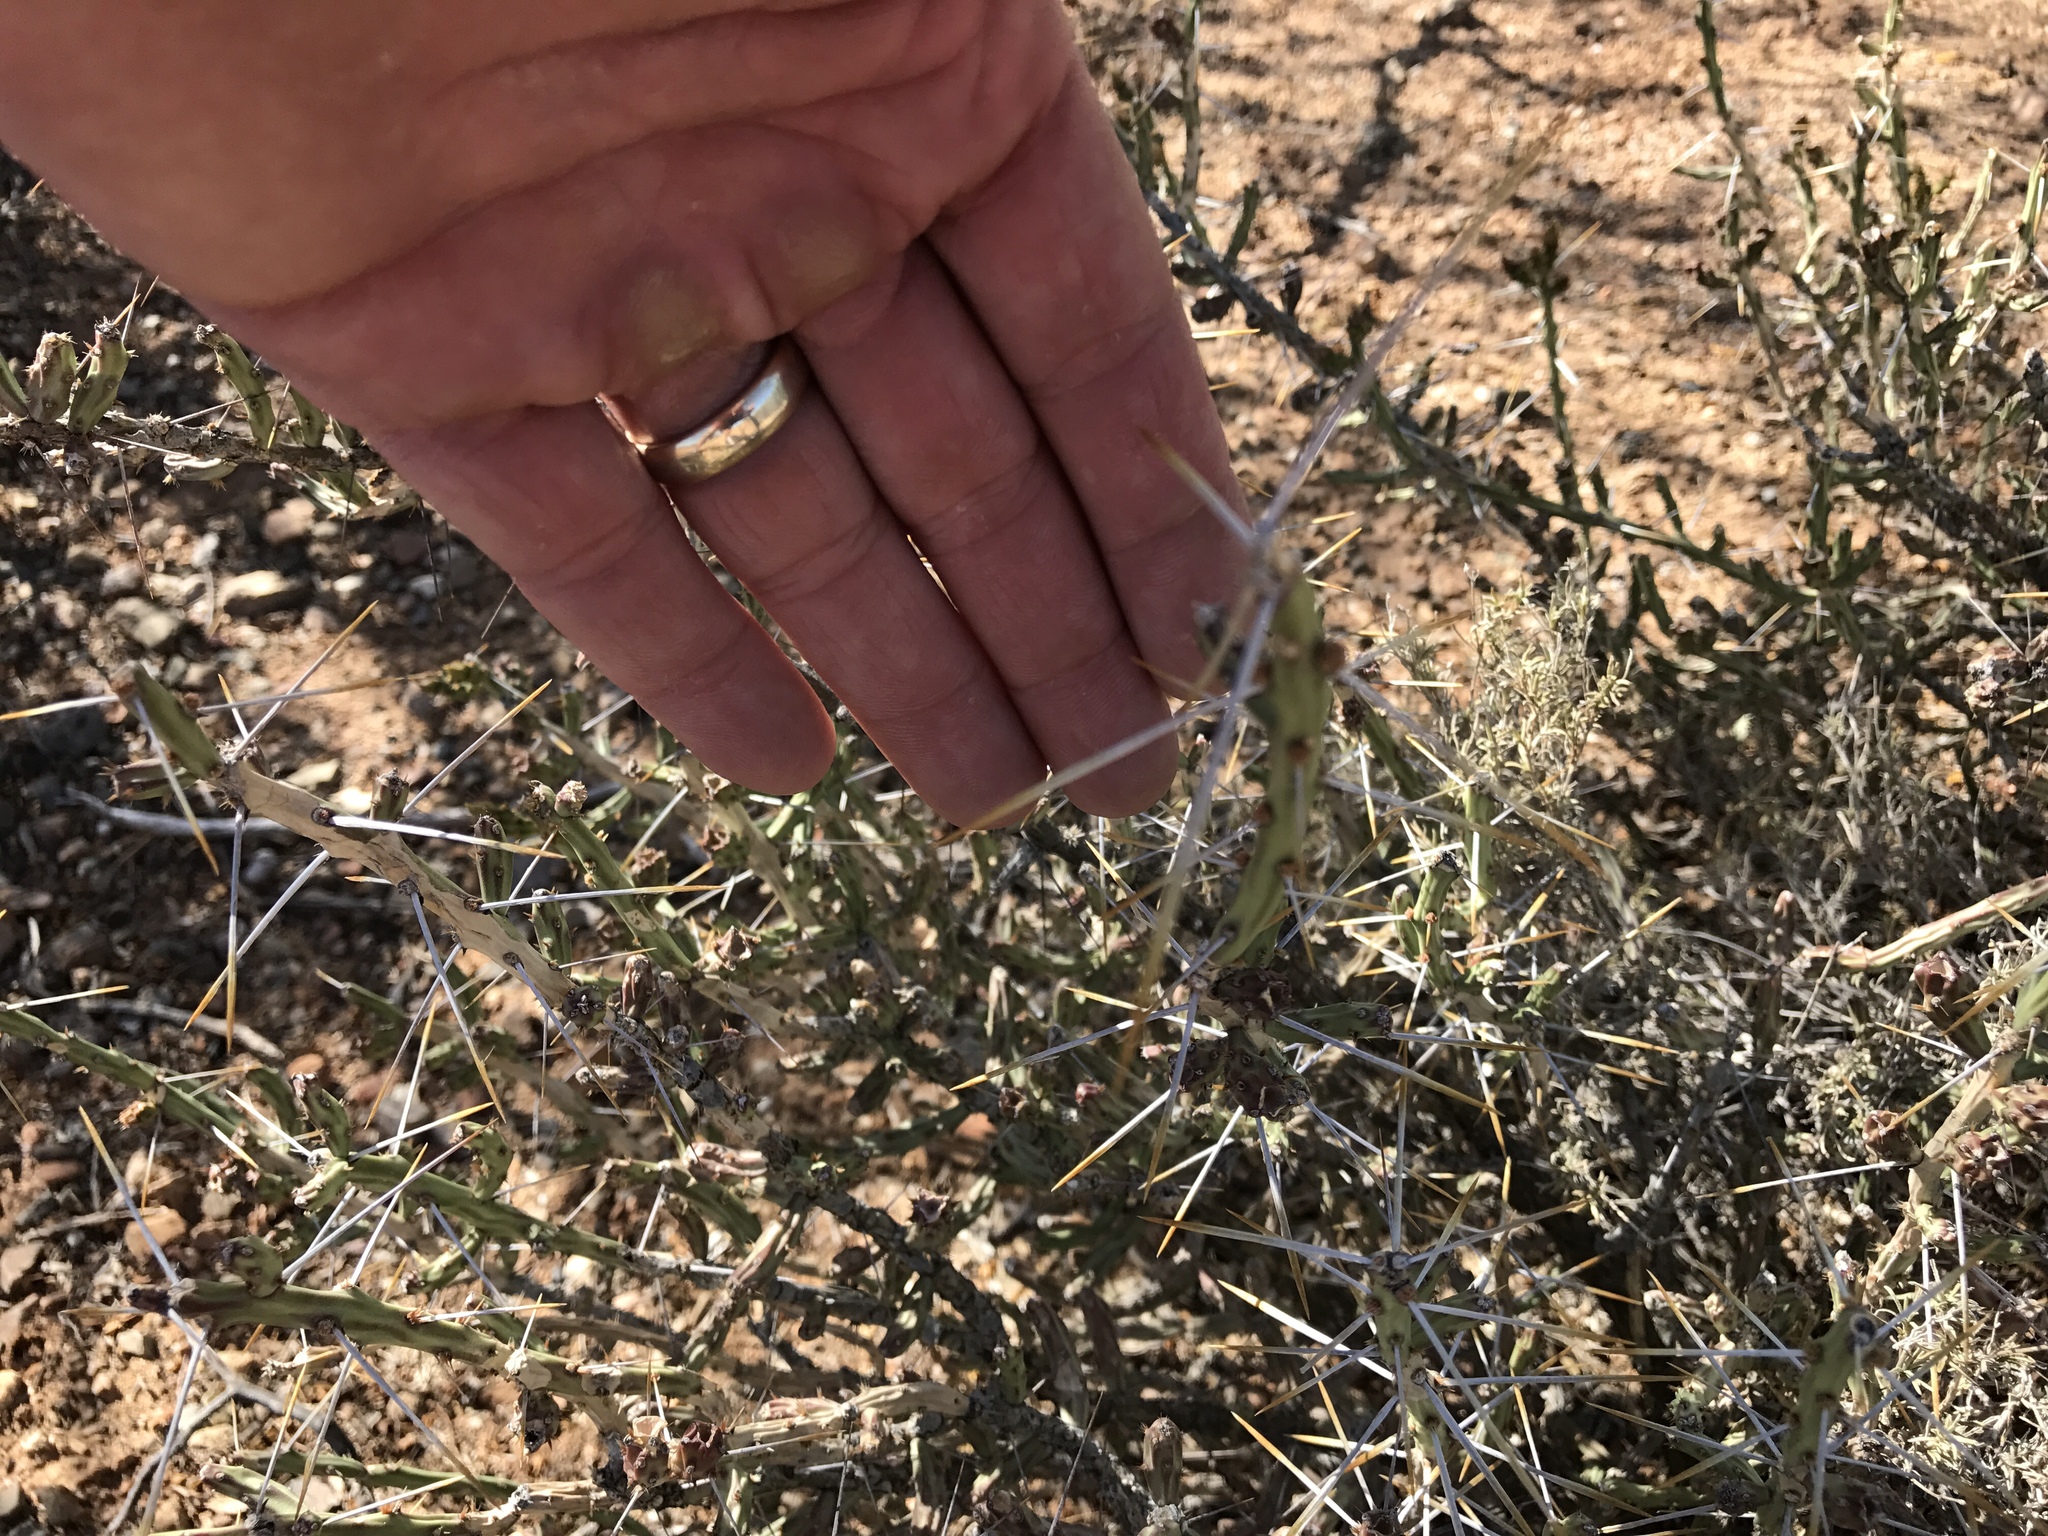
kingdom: Plantae
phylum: Tracheophyta
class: Magnoliopsida
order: Caryophyllales
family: Cactaceae
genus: Cylindropuntia
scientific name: Cylindropuntia leptocaulis
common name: Christmas cactus
